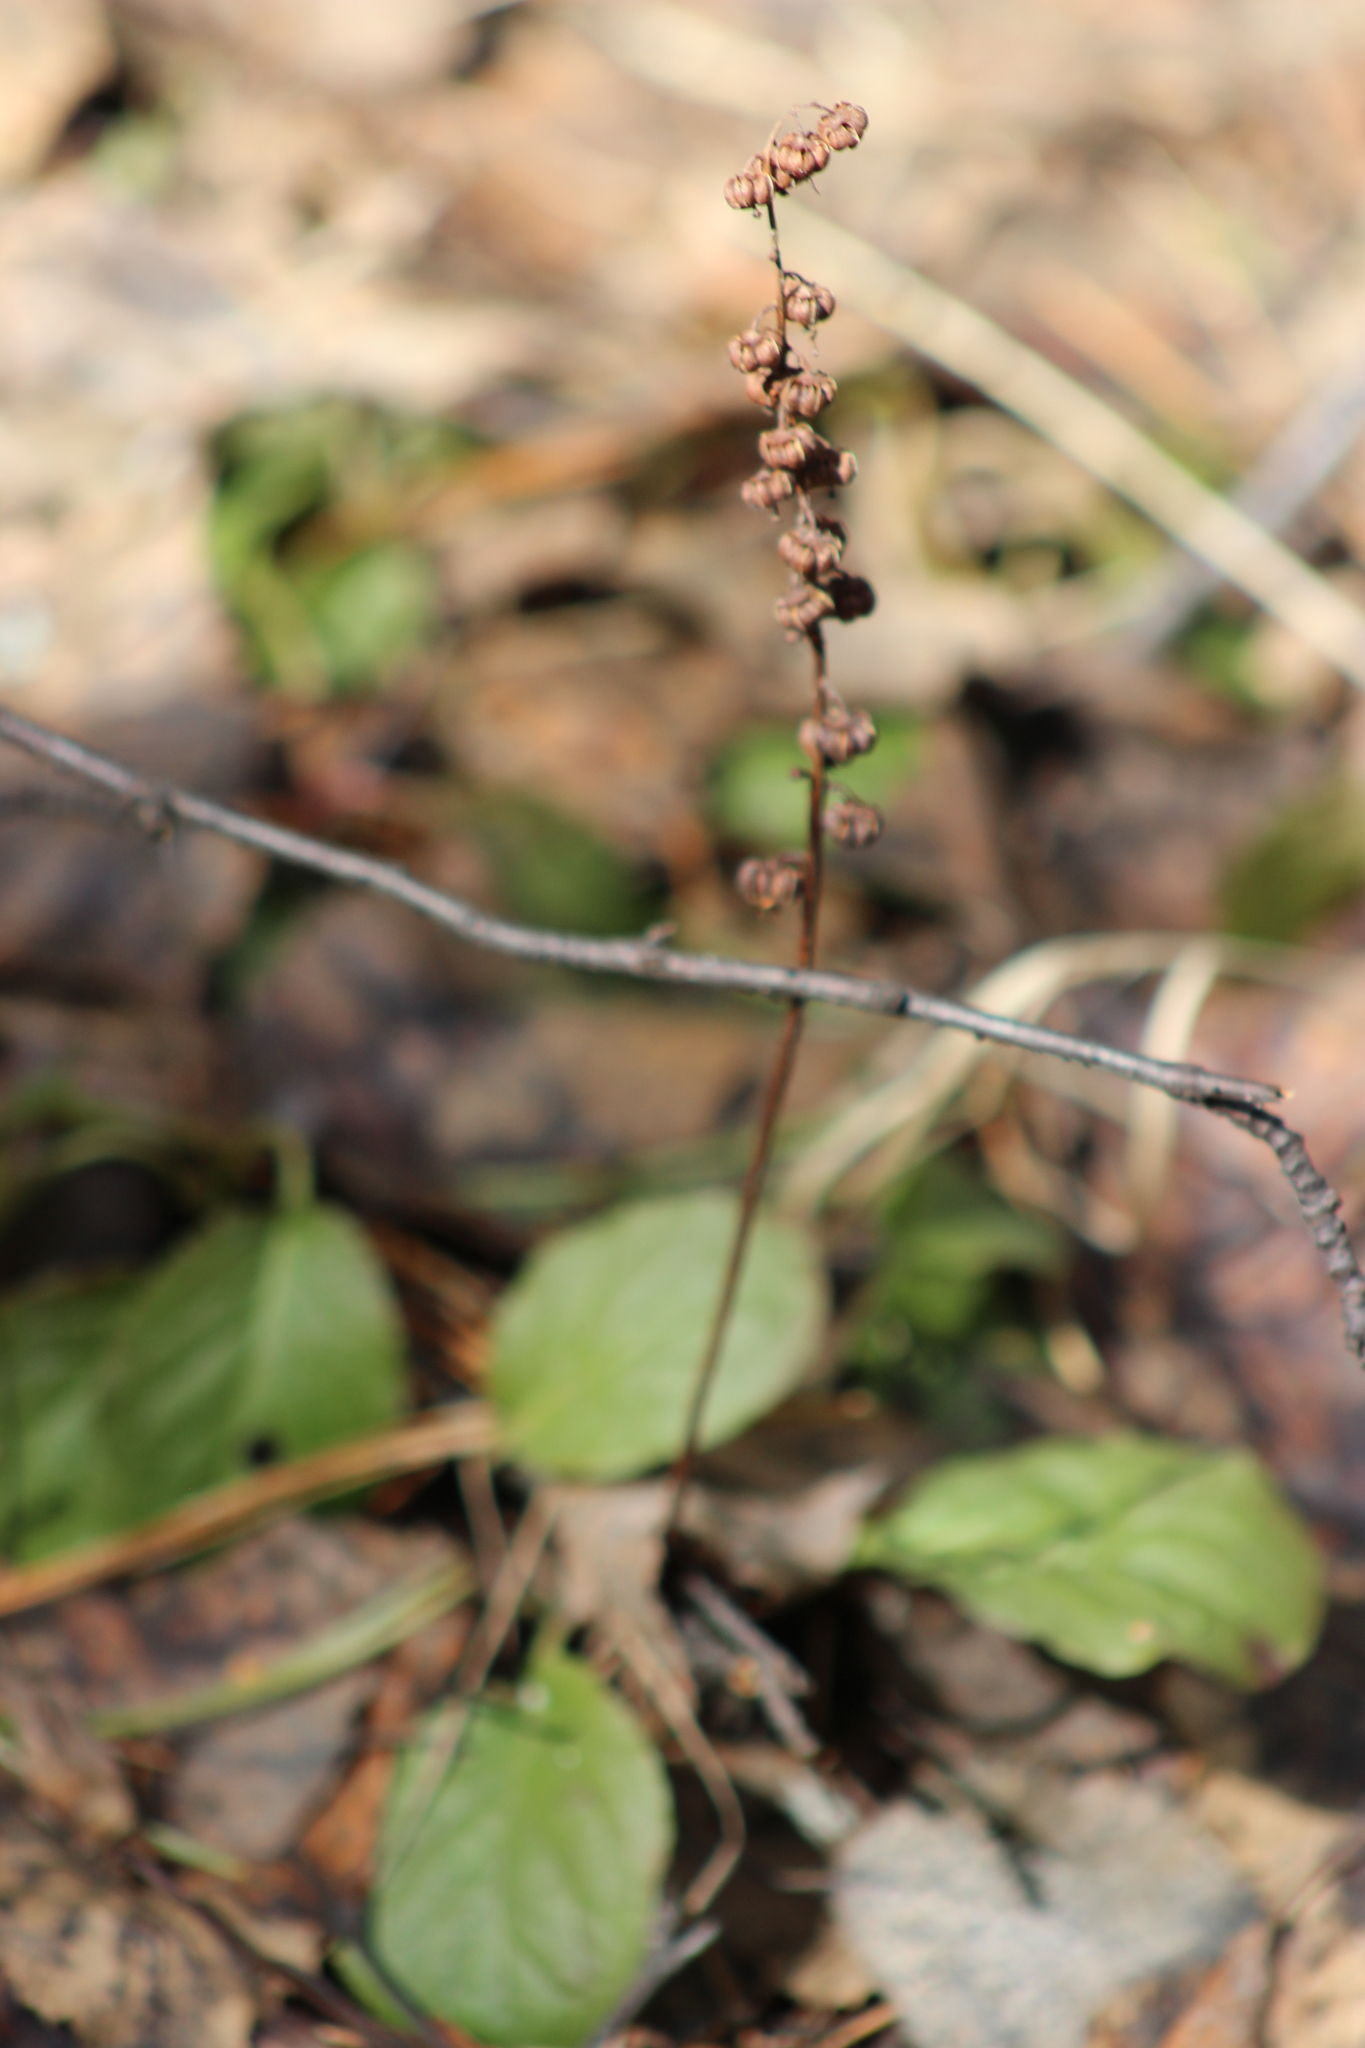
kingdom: Plantae
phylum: Tracheophyta
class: Magnoliopsida
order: Ericales
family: Ericaceae
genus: Pyrola
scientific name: Pyrola minor
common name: Common wintergreen
